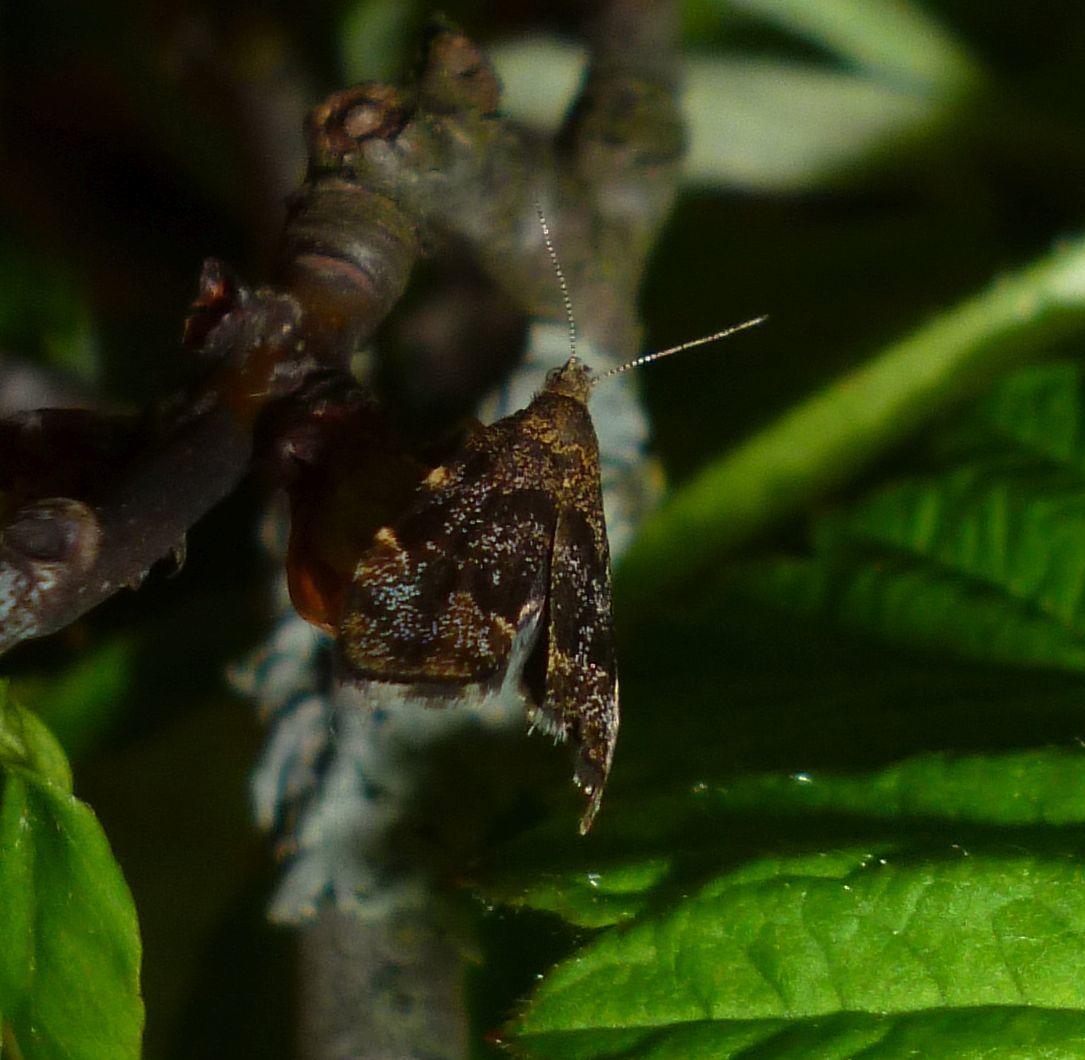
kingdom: Animalia
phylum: Arthropoda
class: Insecta
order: Lepidoptera
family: Choreutidae
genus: Anthophila
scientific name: Anthophila fabriciana
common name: Nettle-tap
